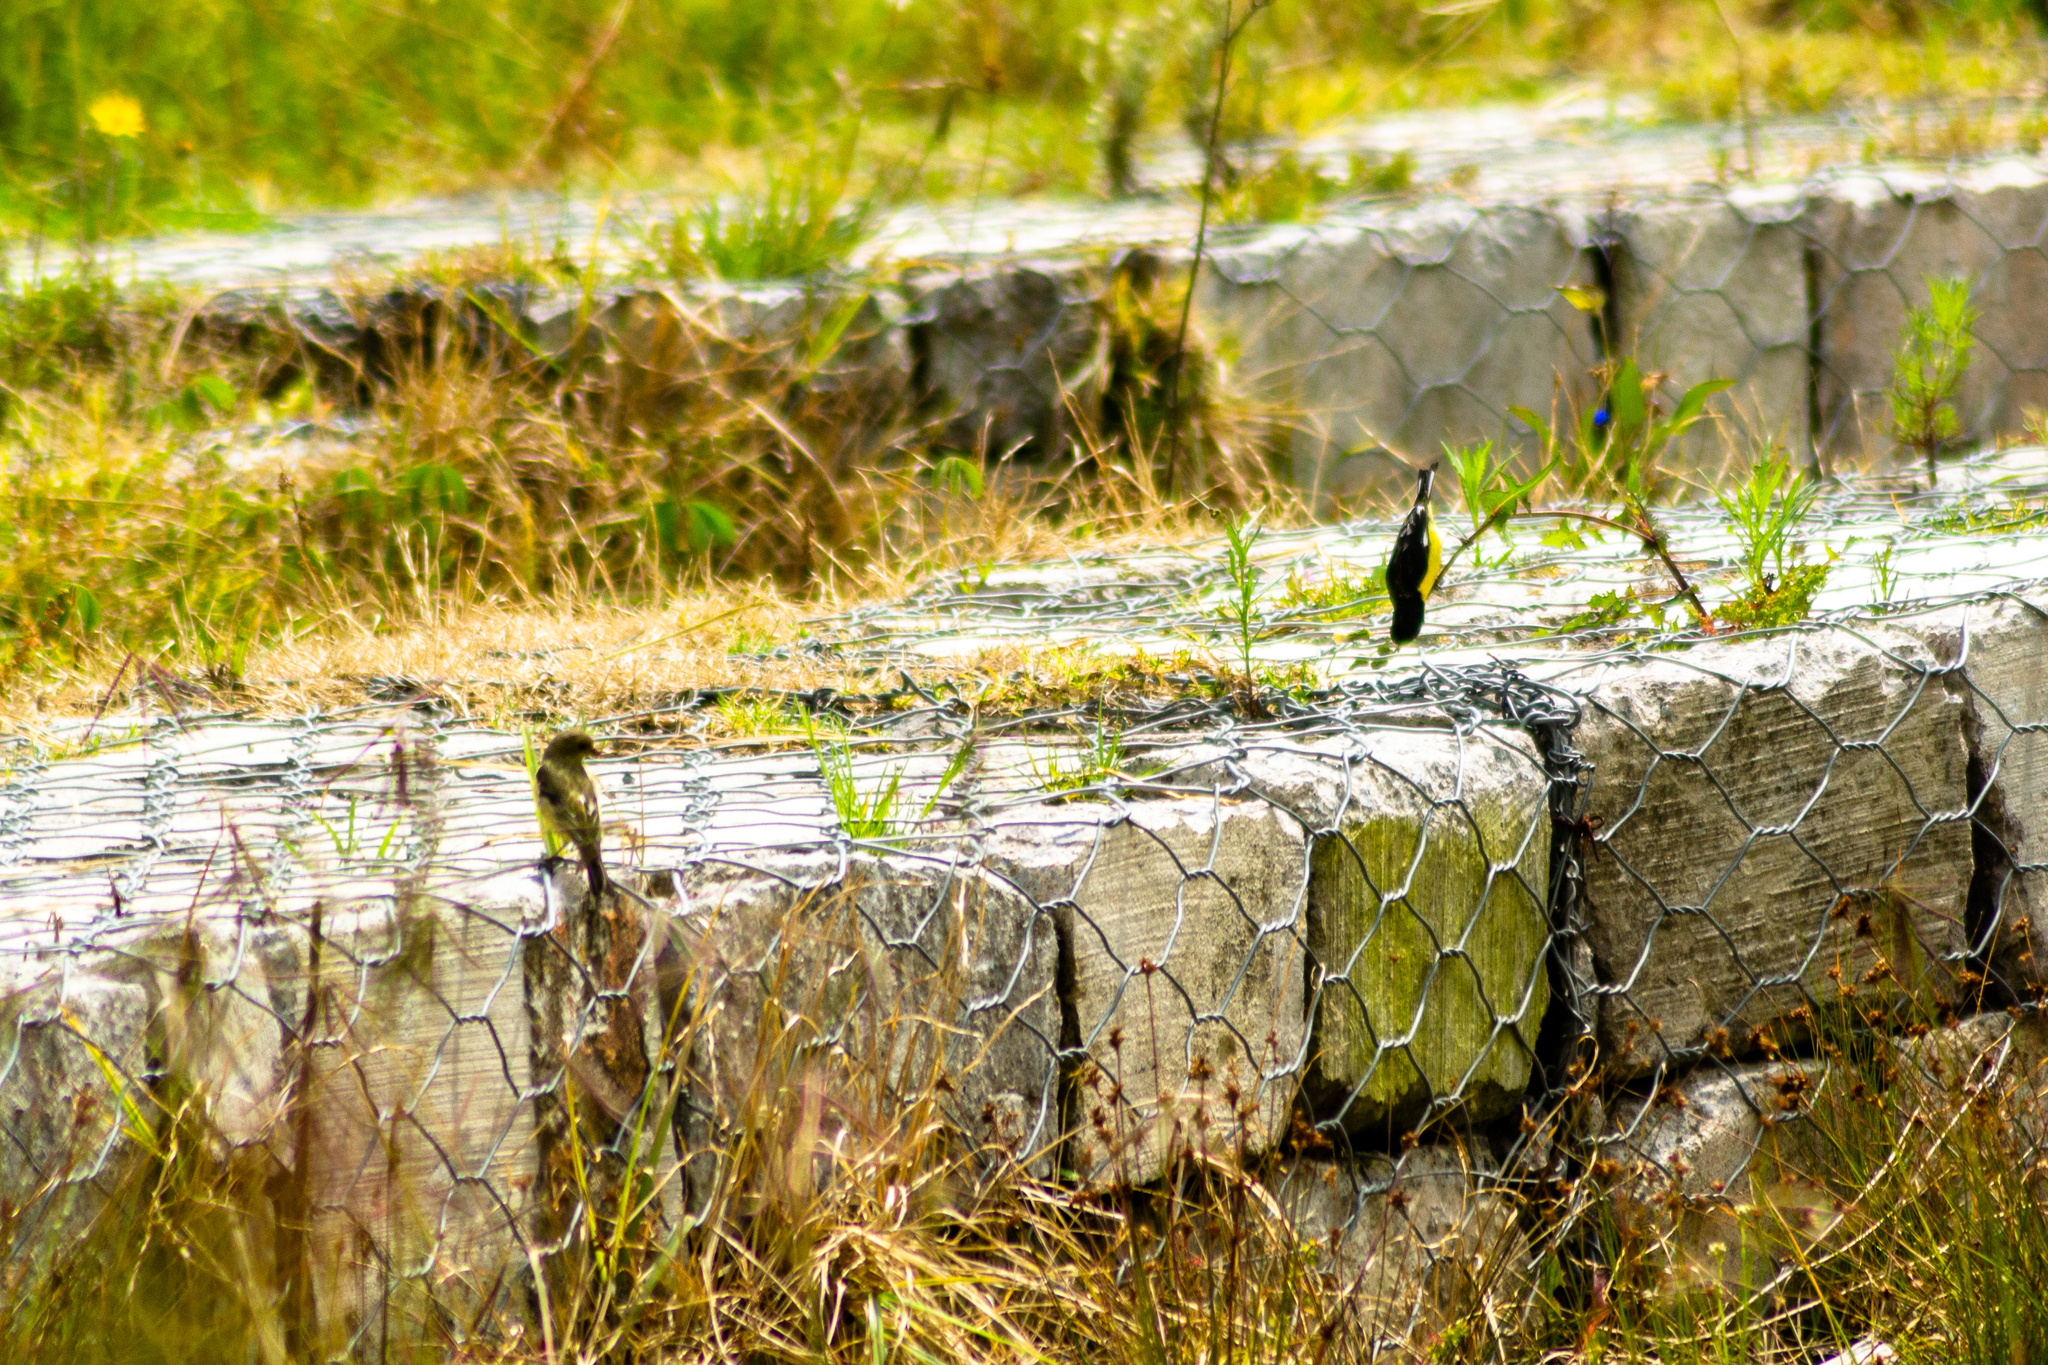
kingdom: Animalia
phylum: Chordata
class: Aves
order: Passeriformes
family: Fringillidae
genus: Spinus
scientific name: Spinus psaltria
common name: Lesser goldfinch
